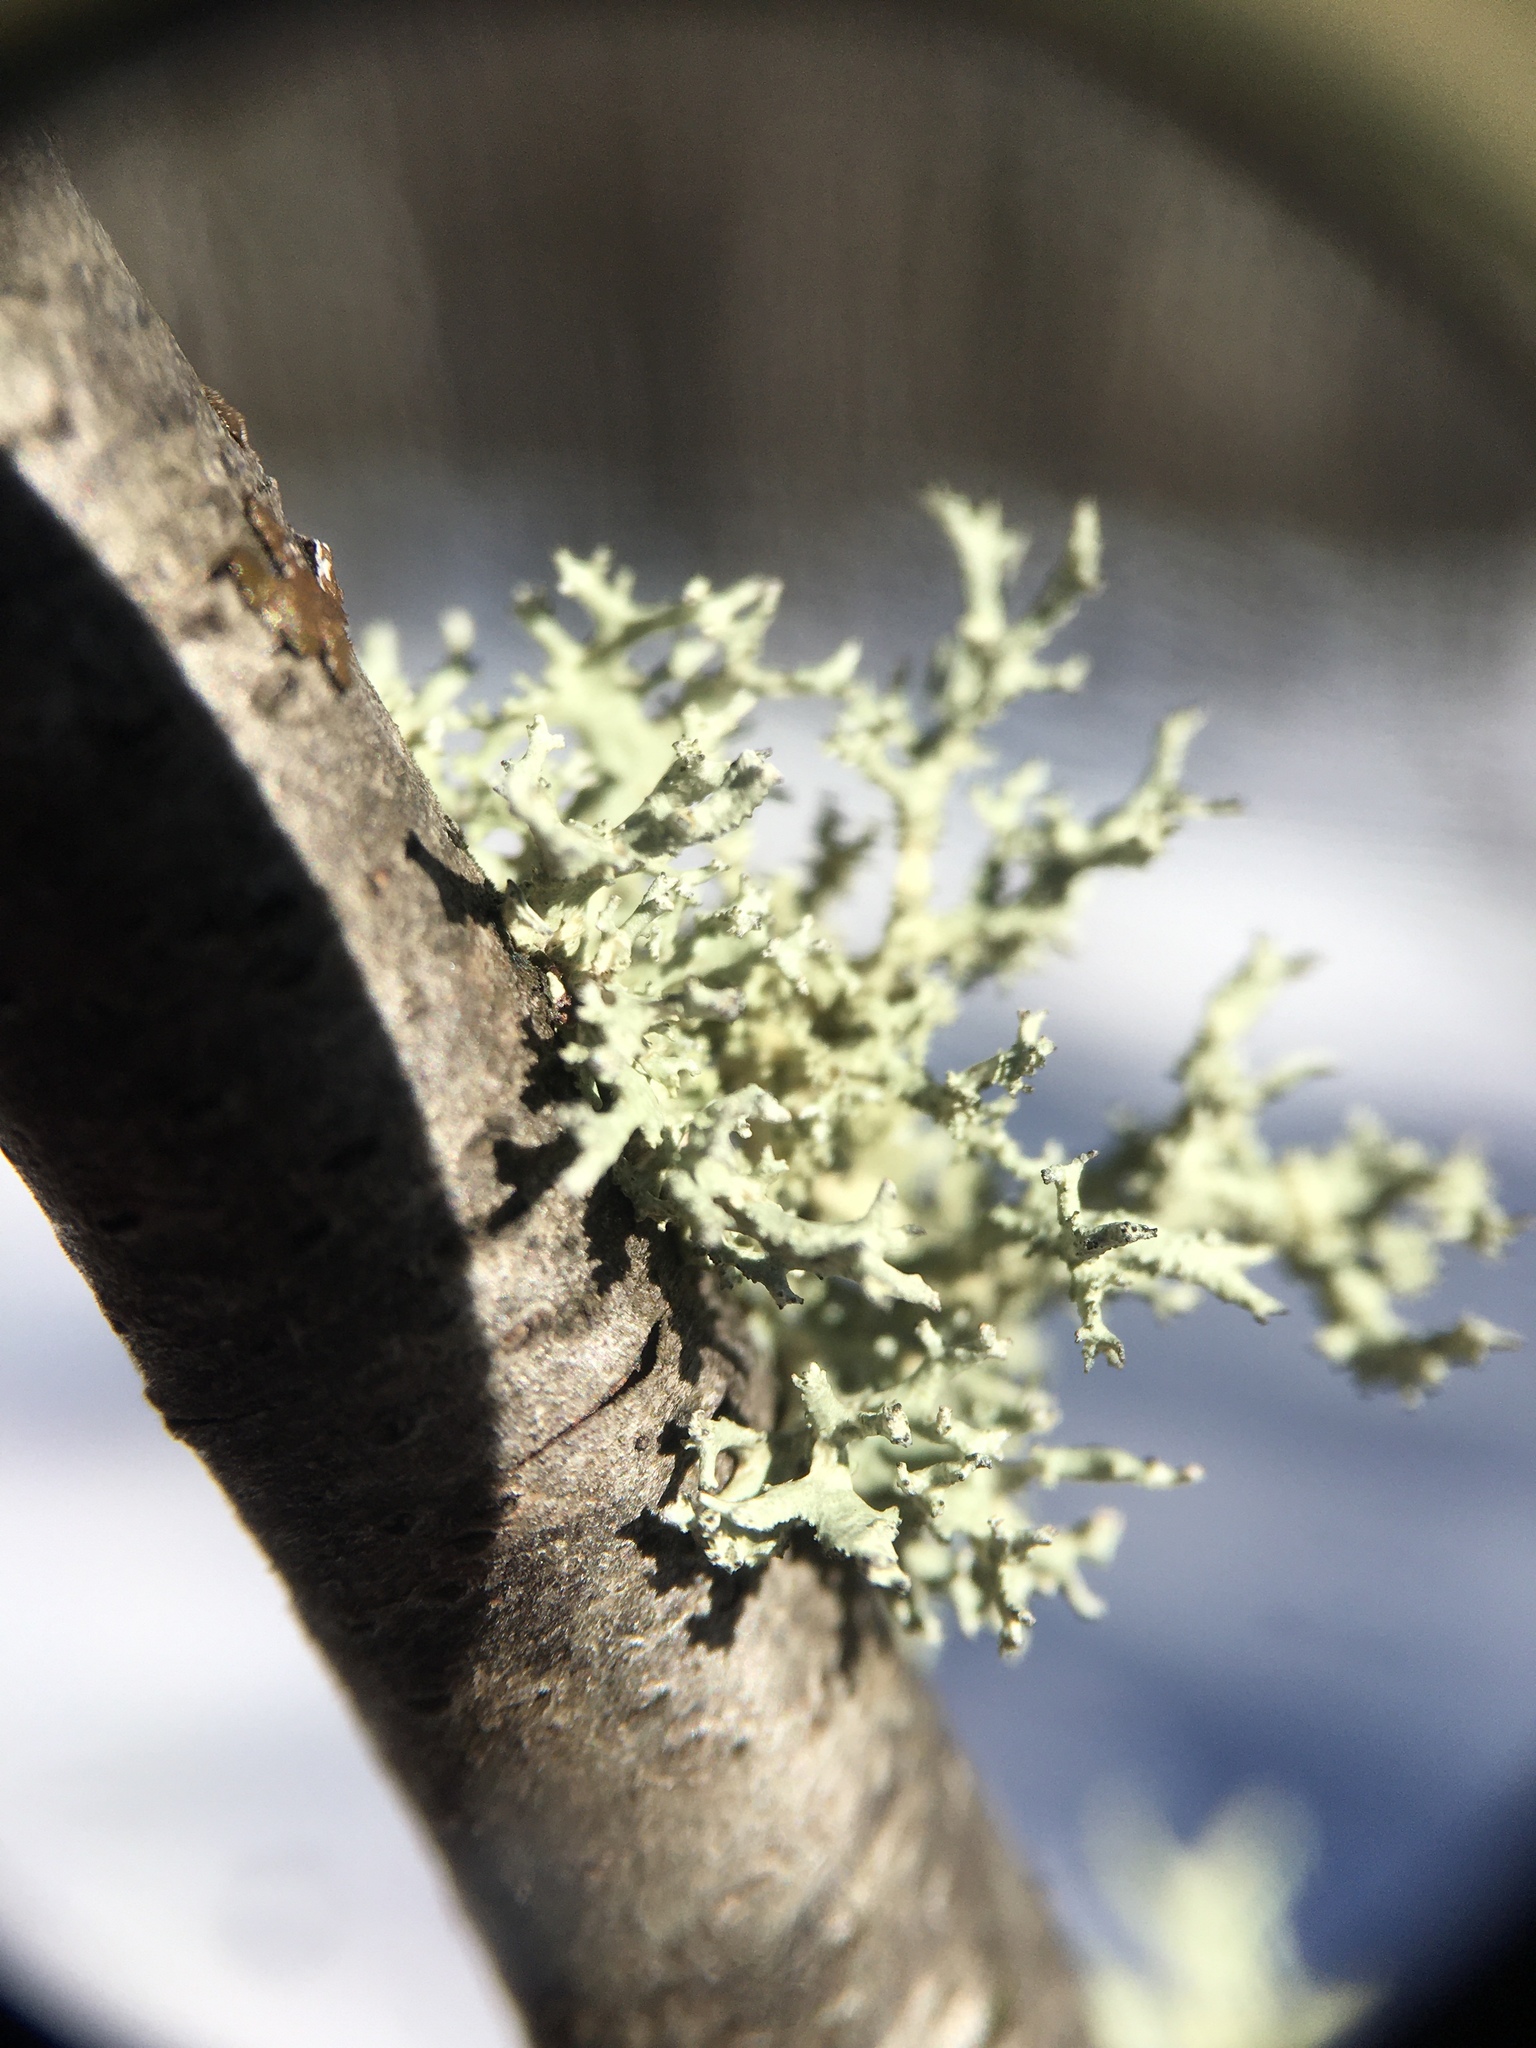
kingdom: Fungi
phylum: Ascomycota
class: Lecanoromycetes
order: Lecanorales
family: Parmeliaceae
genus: Evernia
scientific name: Evernia mesomorpha
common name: Boreal oak moss lichen
